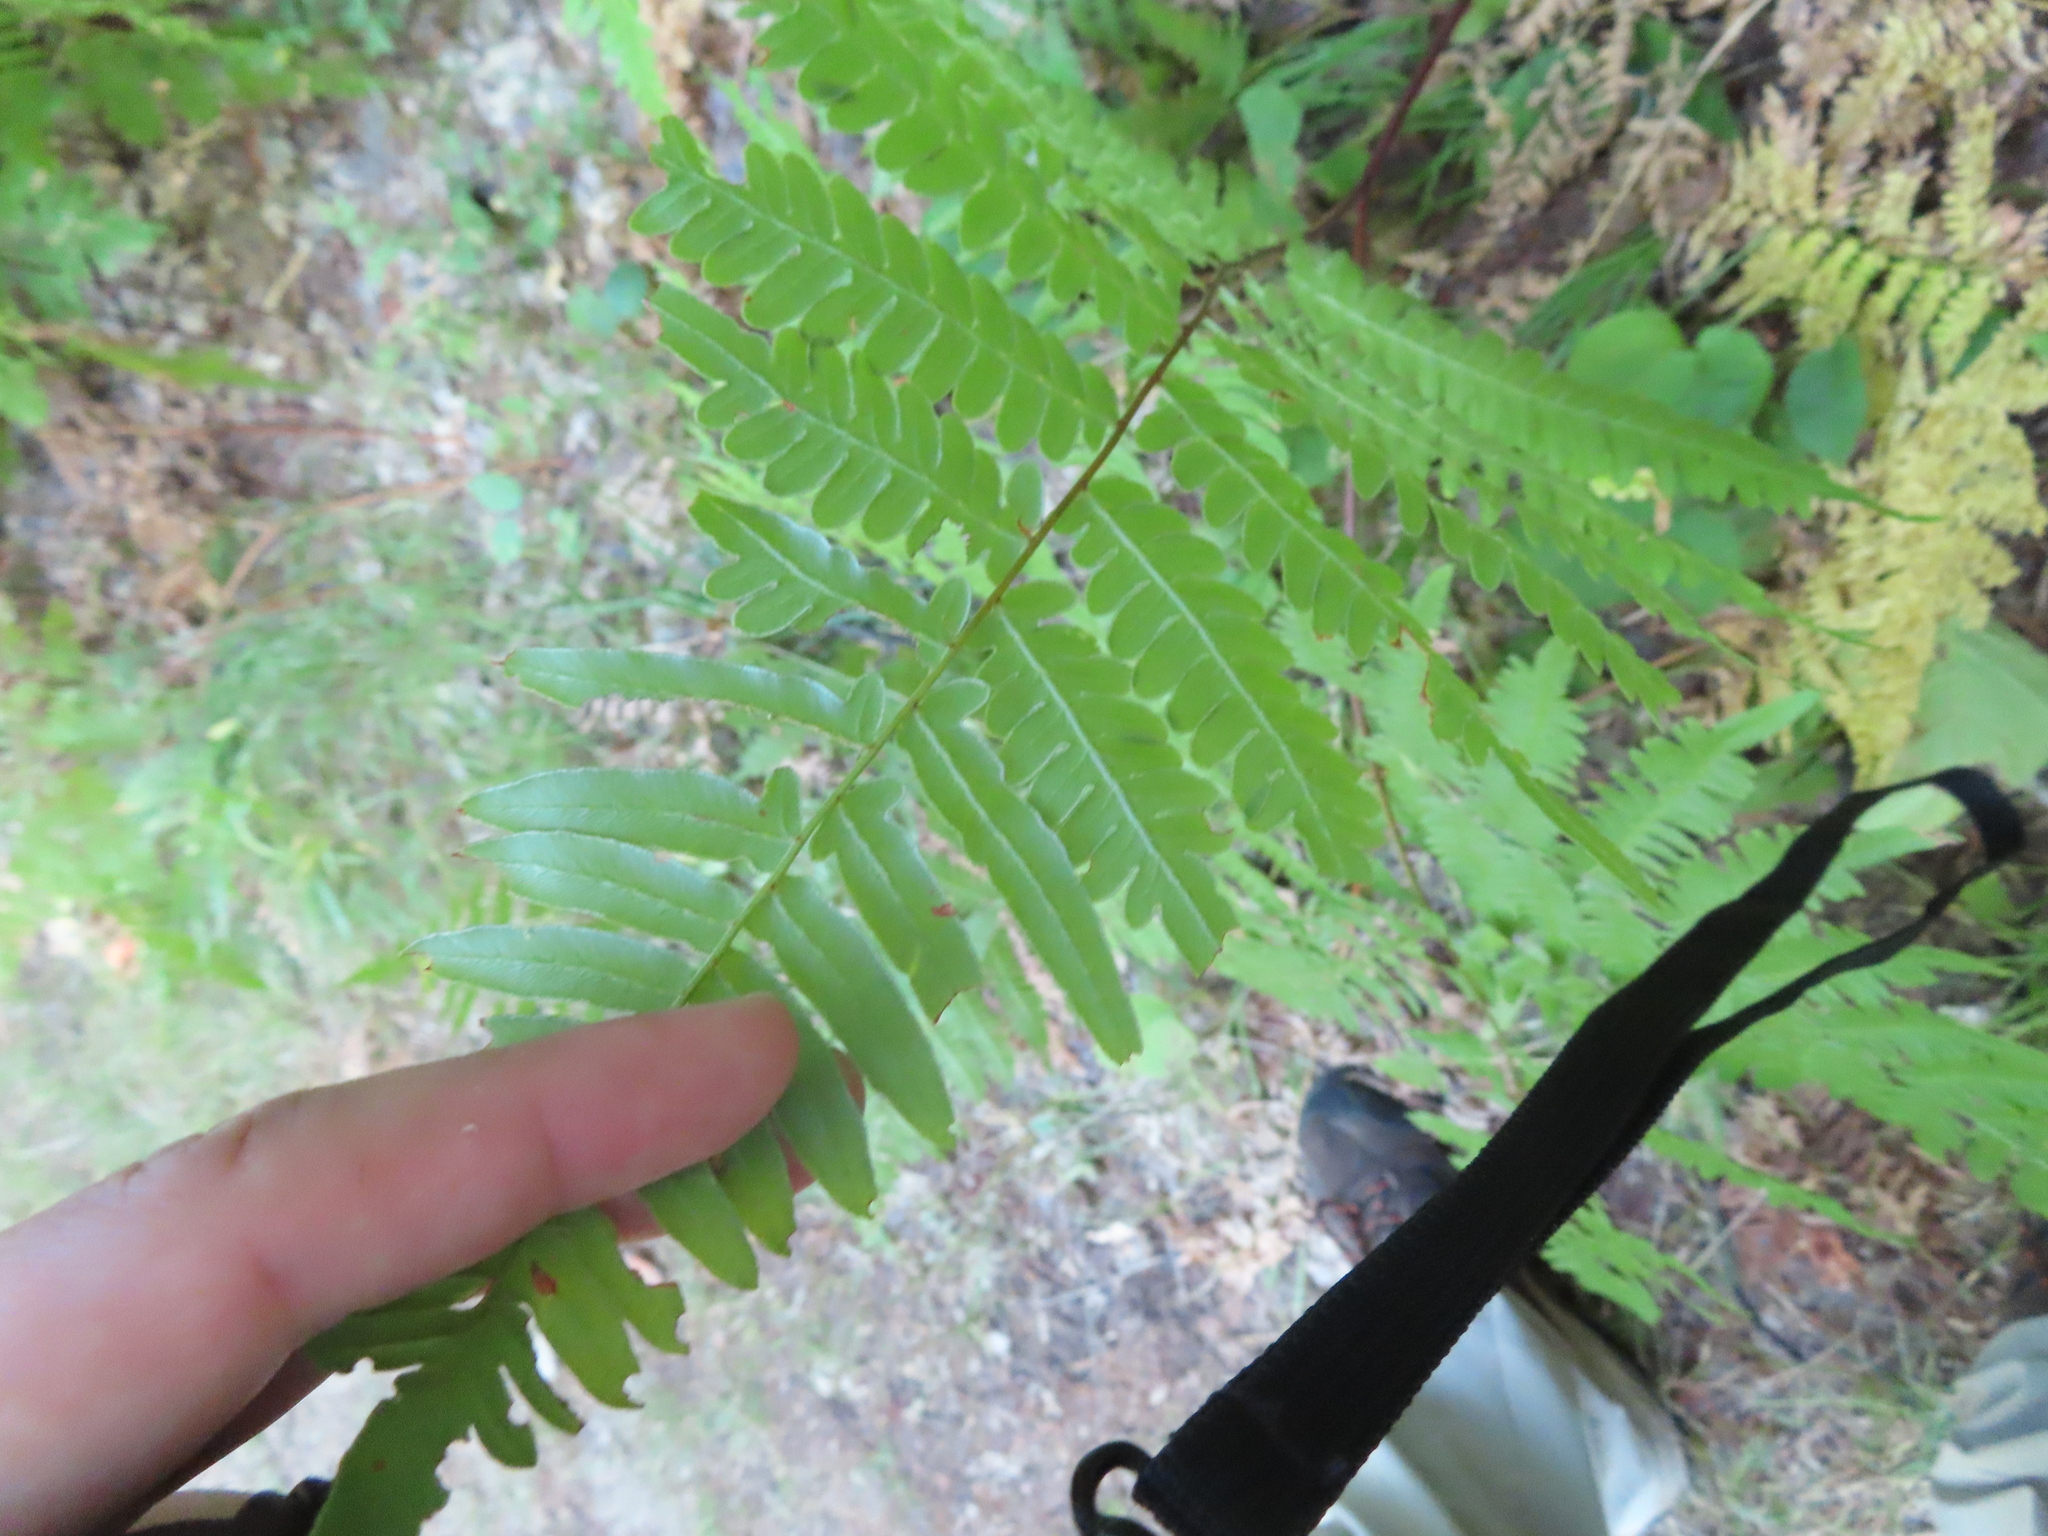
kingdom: Plantae
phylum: Tracheophyta
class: Polypodiopsida
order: Polypodiales
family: Dennstaedtiaceae
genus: Pteridium
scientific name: Pteridium aquilinum
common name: Bracken
